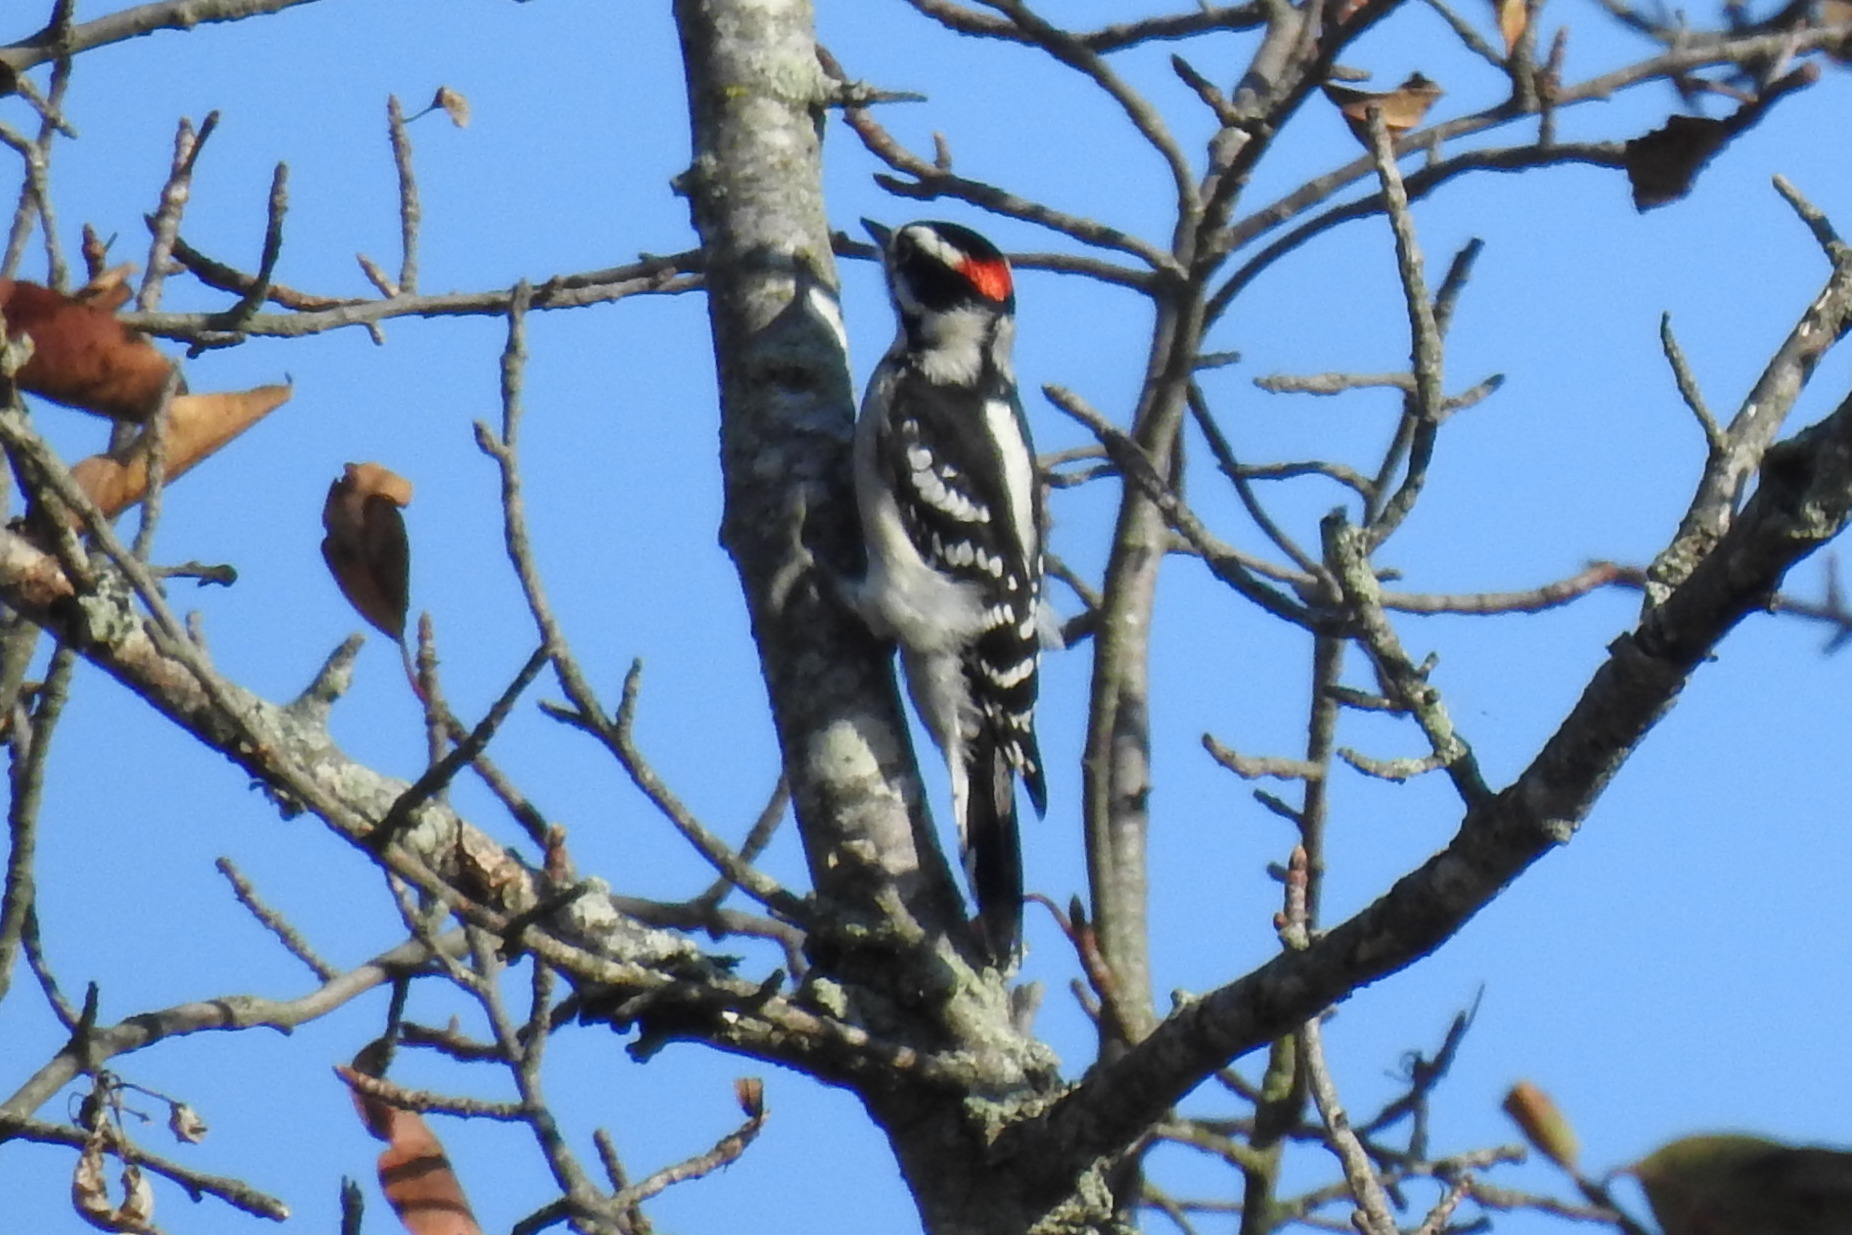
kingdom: Animalia
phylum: Chordata
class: Aves
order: Piciformes
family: Picidae
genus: Dryobates
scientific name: Dryobates pubescens
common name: Downy woodpecker
